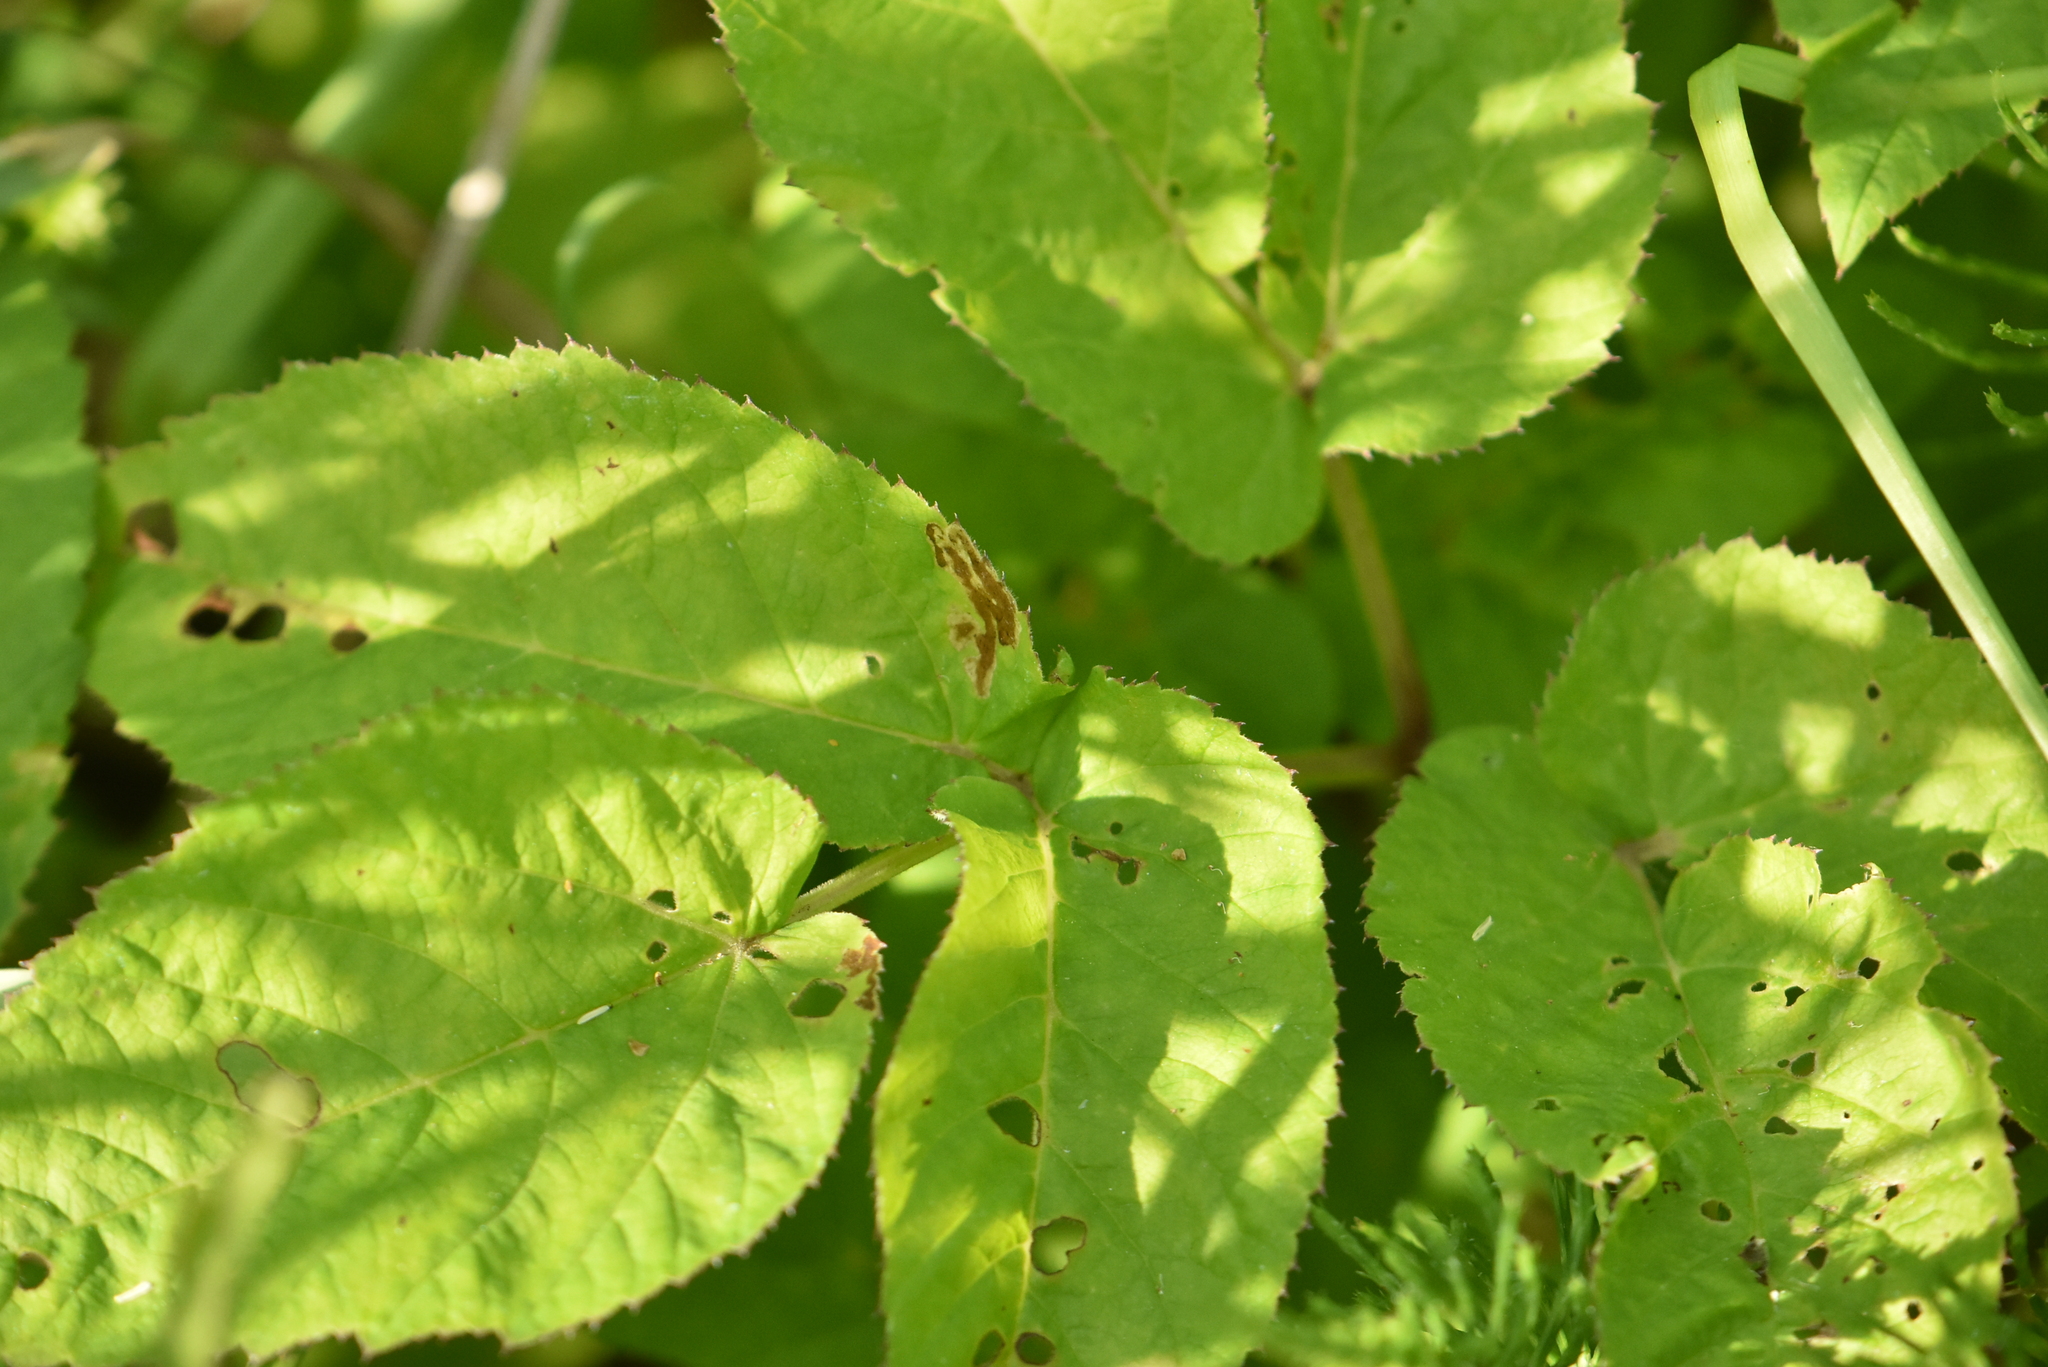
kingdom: Plantae
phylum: Tracheophyta
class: Magnoliopsida
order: Apiales
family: Apiaceae
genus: Aegopodium
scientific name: Aegopodium podagraria
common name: Ground-elder
